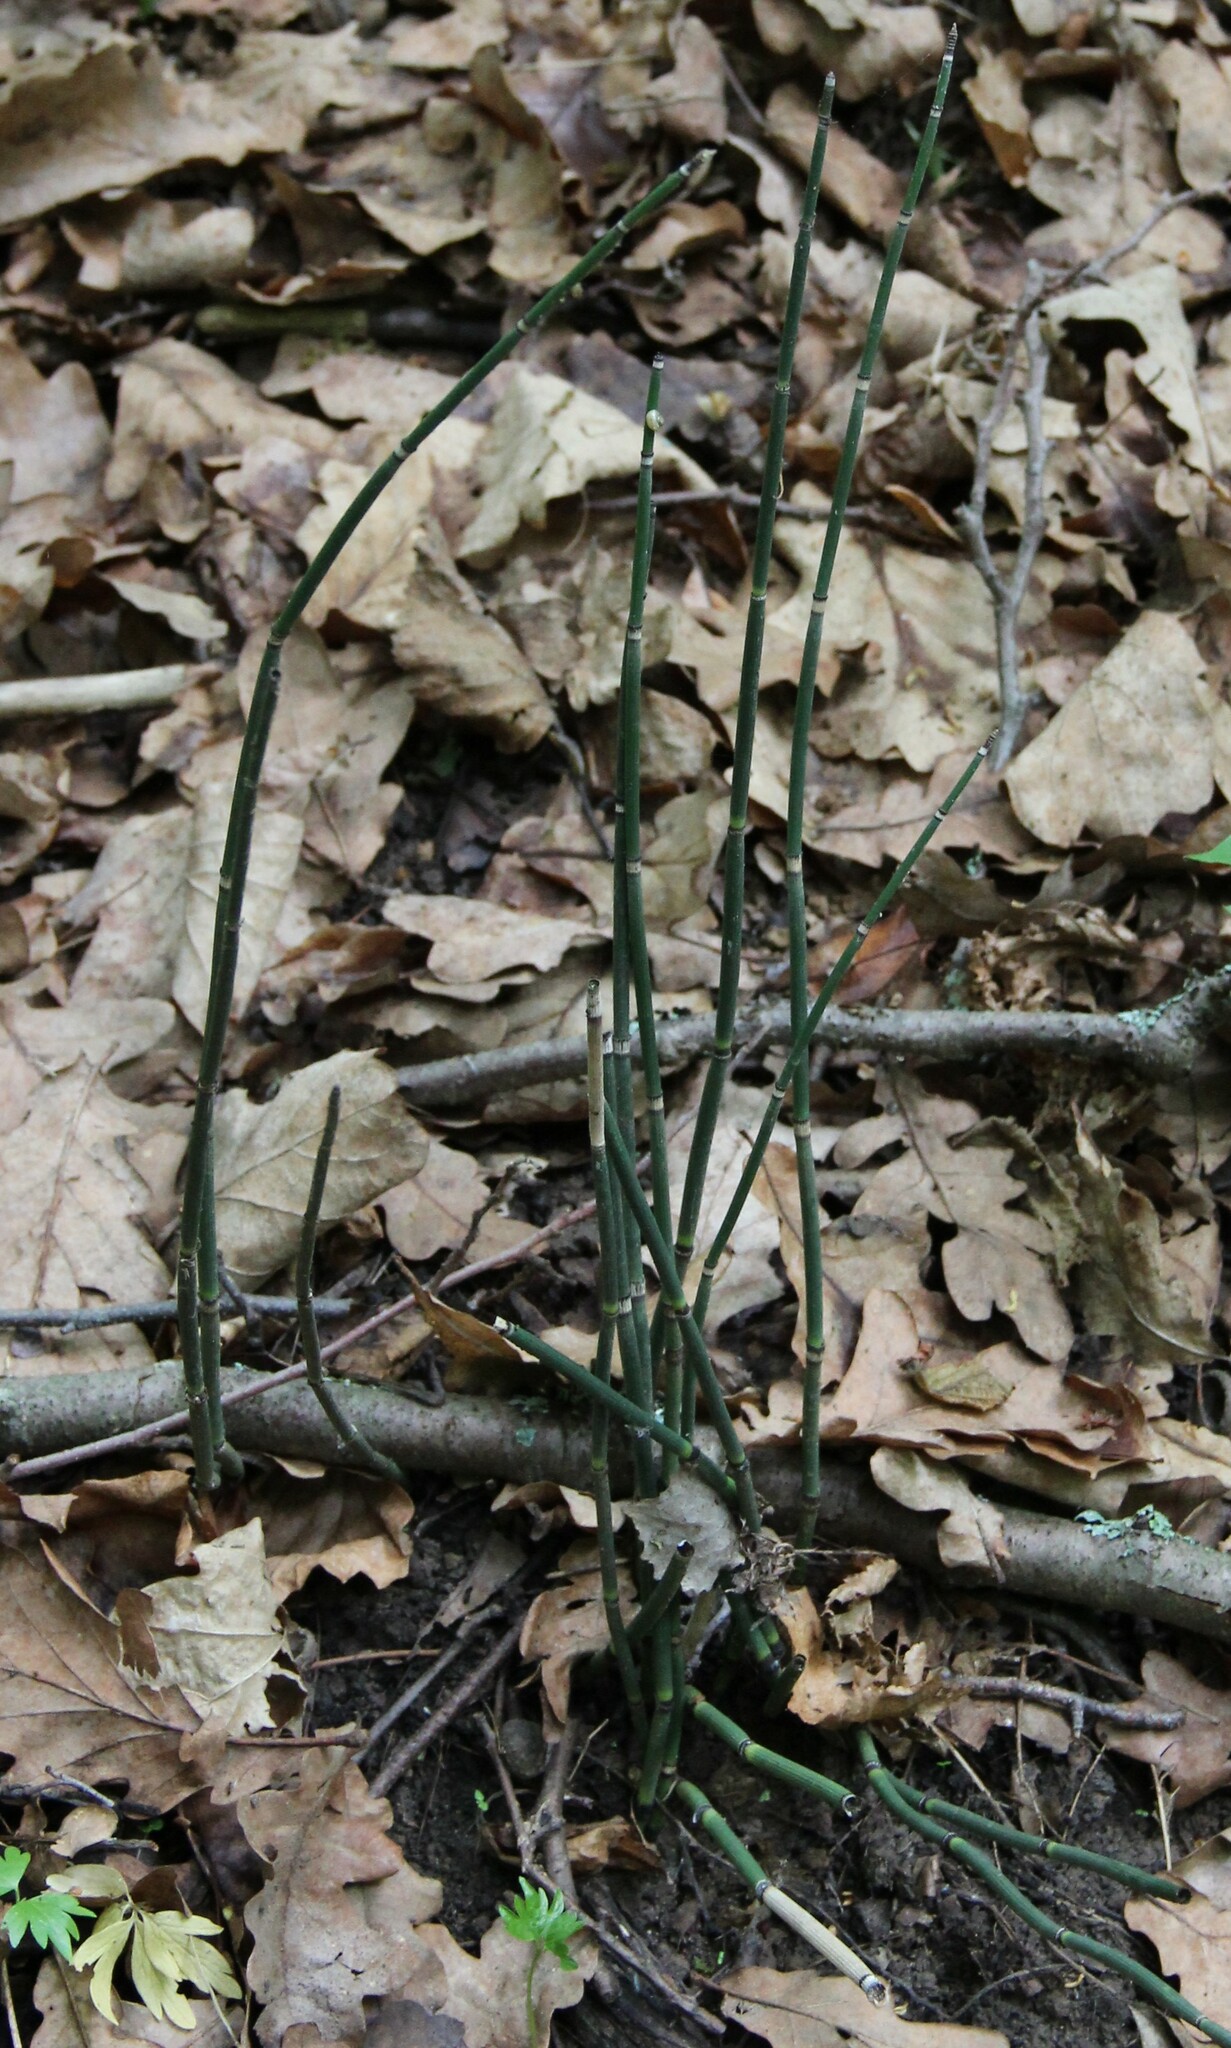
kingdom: Plantae
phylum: Tracheophyta
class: Polypodiopsida
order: Equisetales
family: Equisetaceae
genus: Equisetum
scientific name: Equisetum hyemale
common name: Rough horsetail
